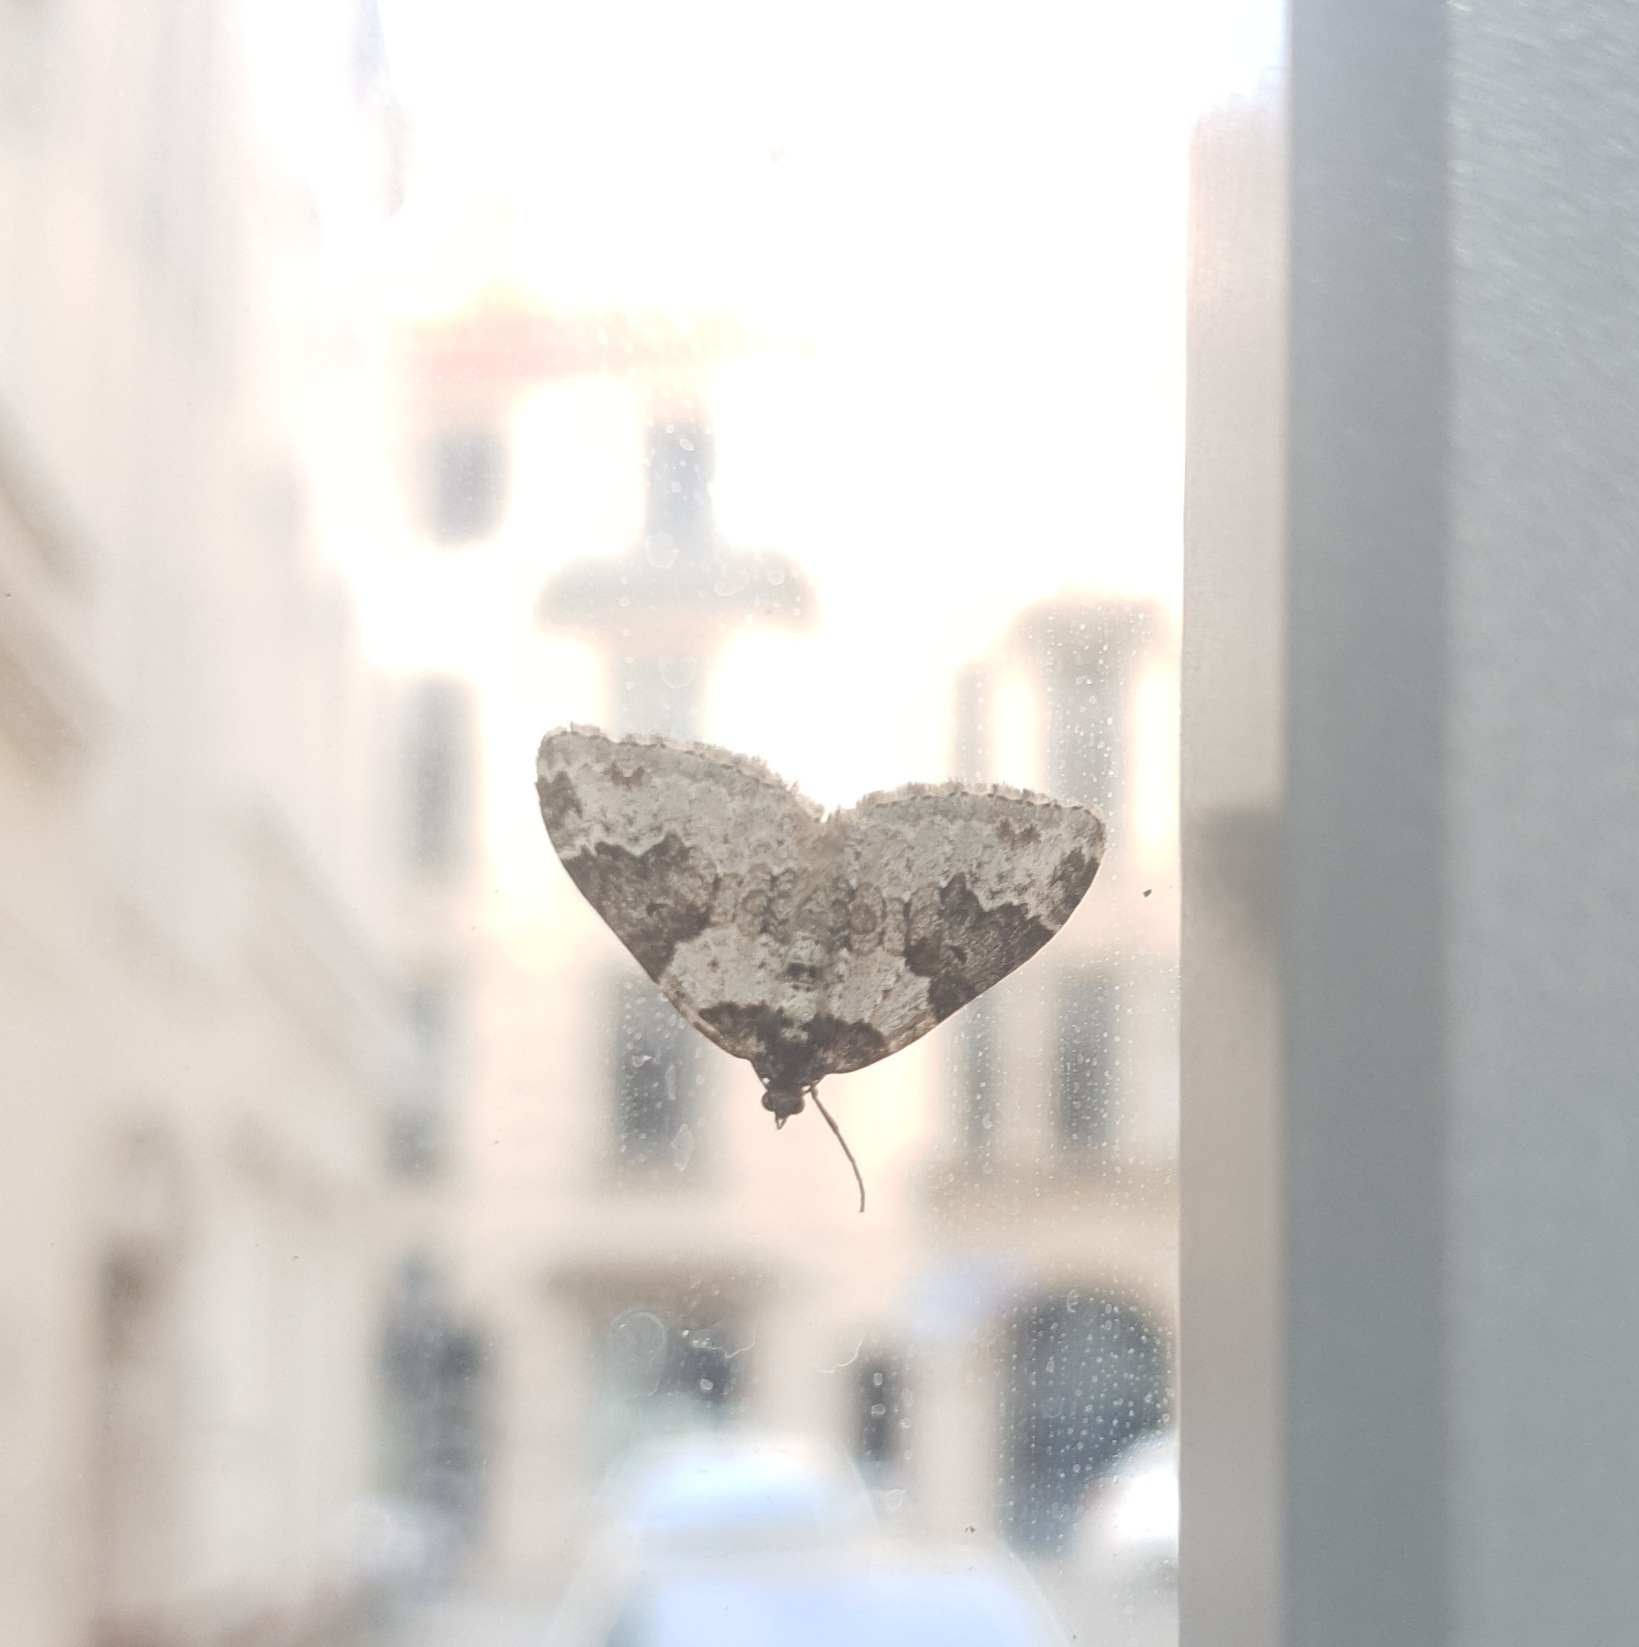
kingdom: Animalia
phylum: Arthropoda
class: Insecta
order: Lepidoptera
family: Geometridae
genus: Xanthorhoe
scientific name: Xanthorhoe fluctuata
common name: Garden carpet
